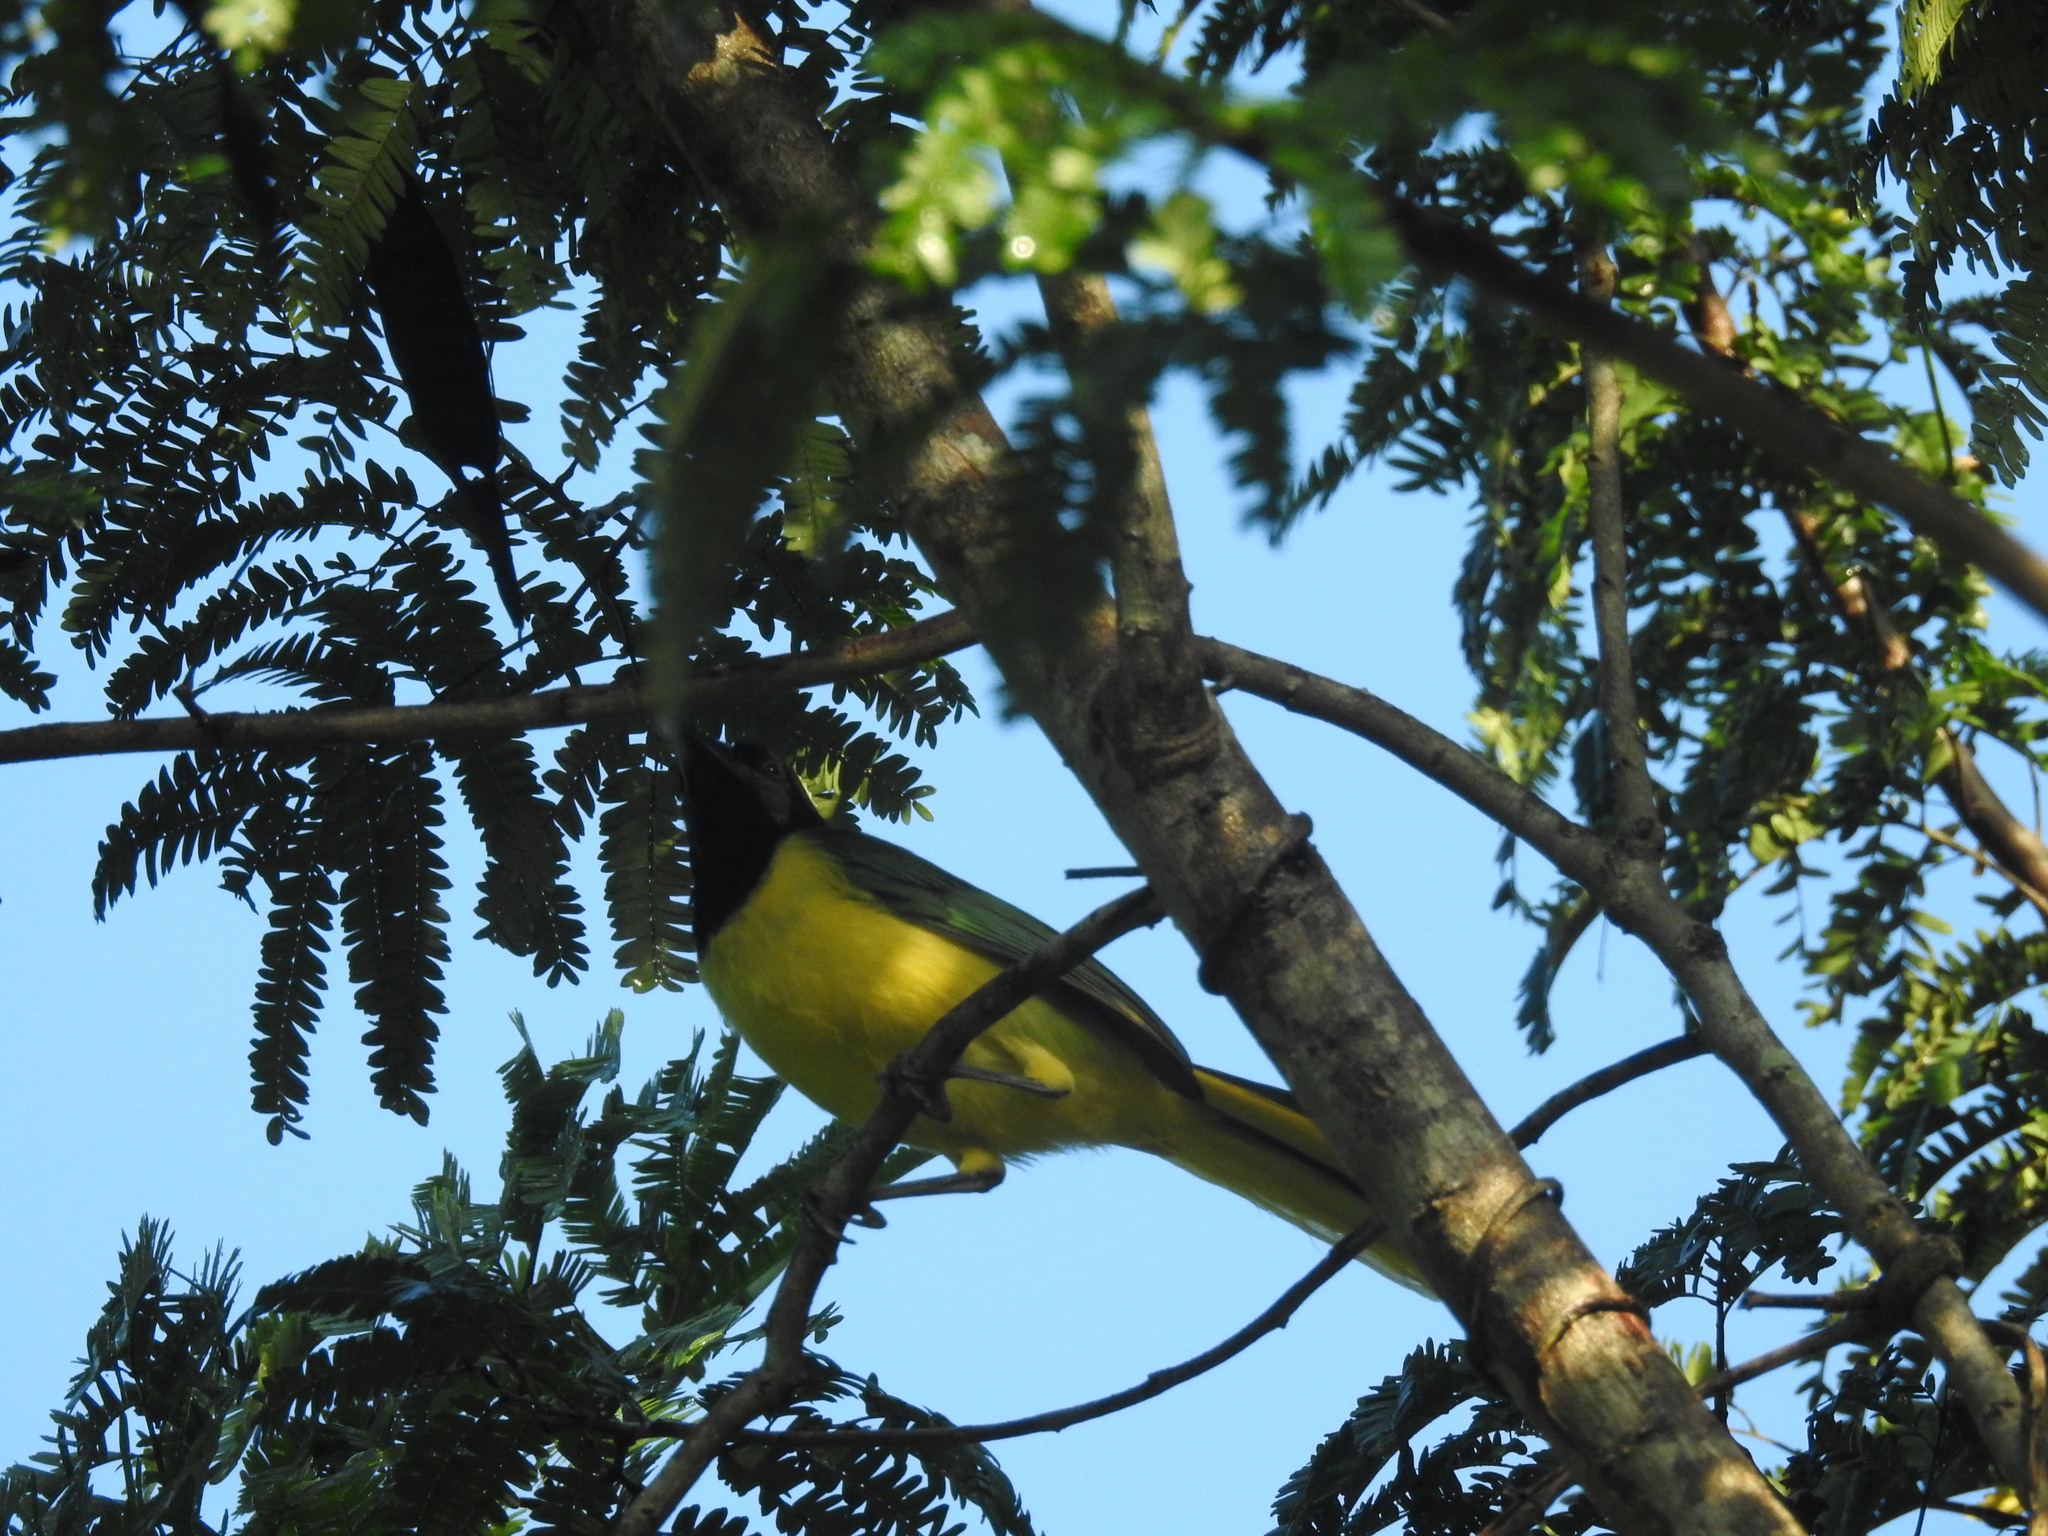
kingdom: Animalia
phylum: Chordata
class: Aves
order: Passeriformes
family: Corvidae
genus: Cyanocorax
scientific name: Cyanocorax yncas
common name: Green jay
